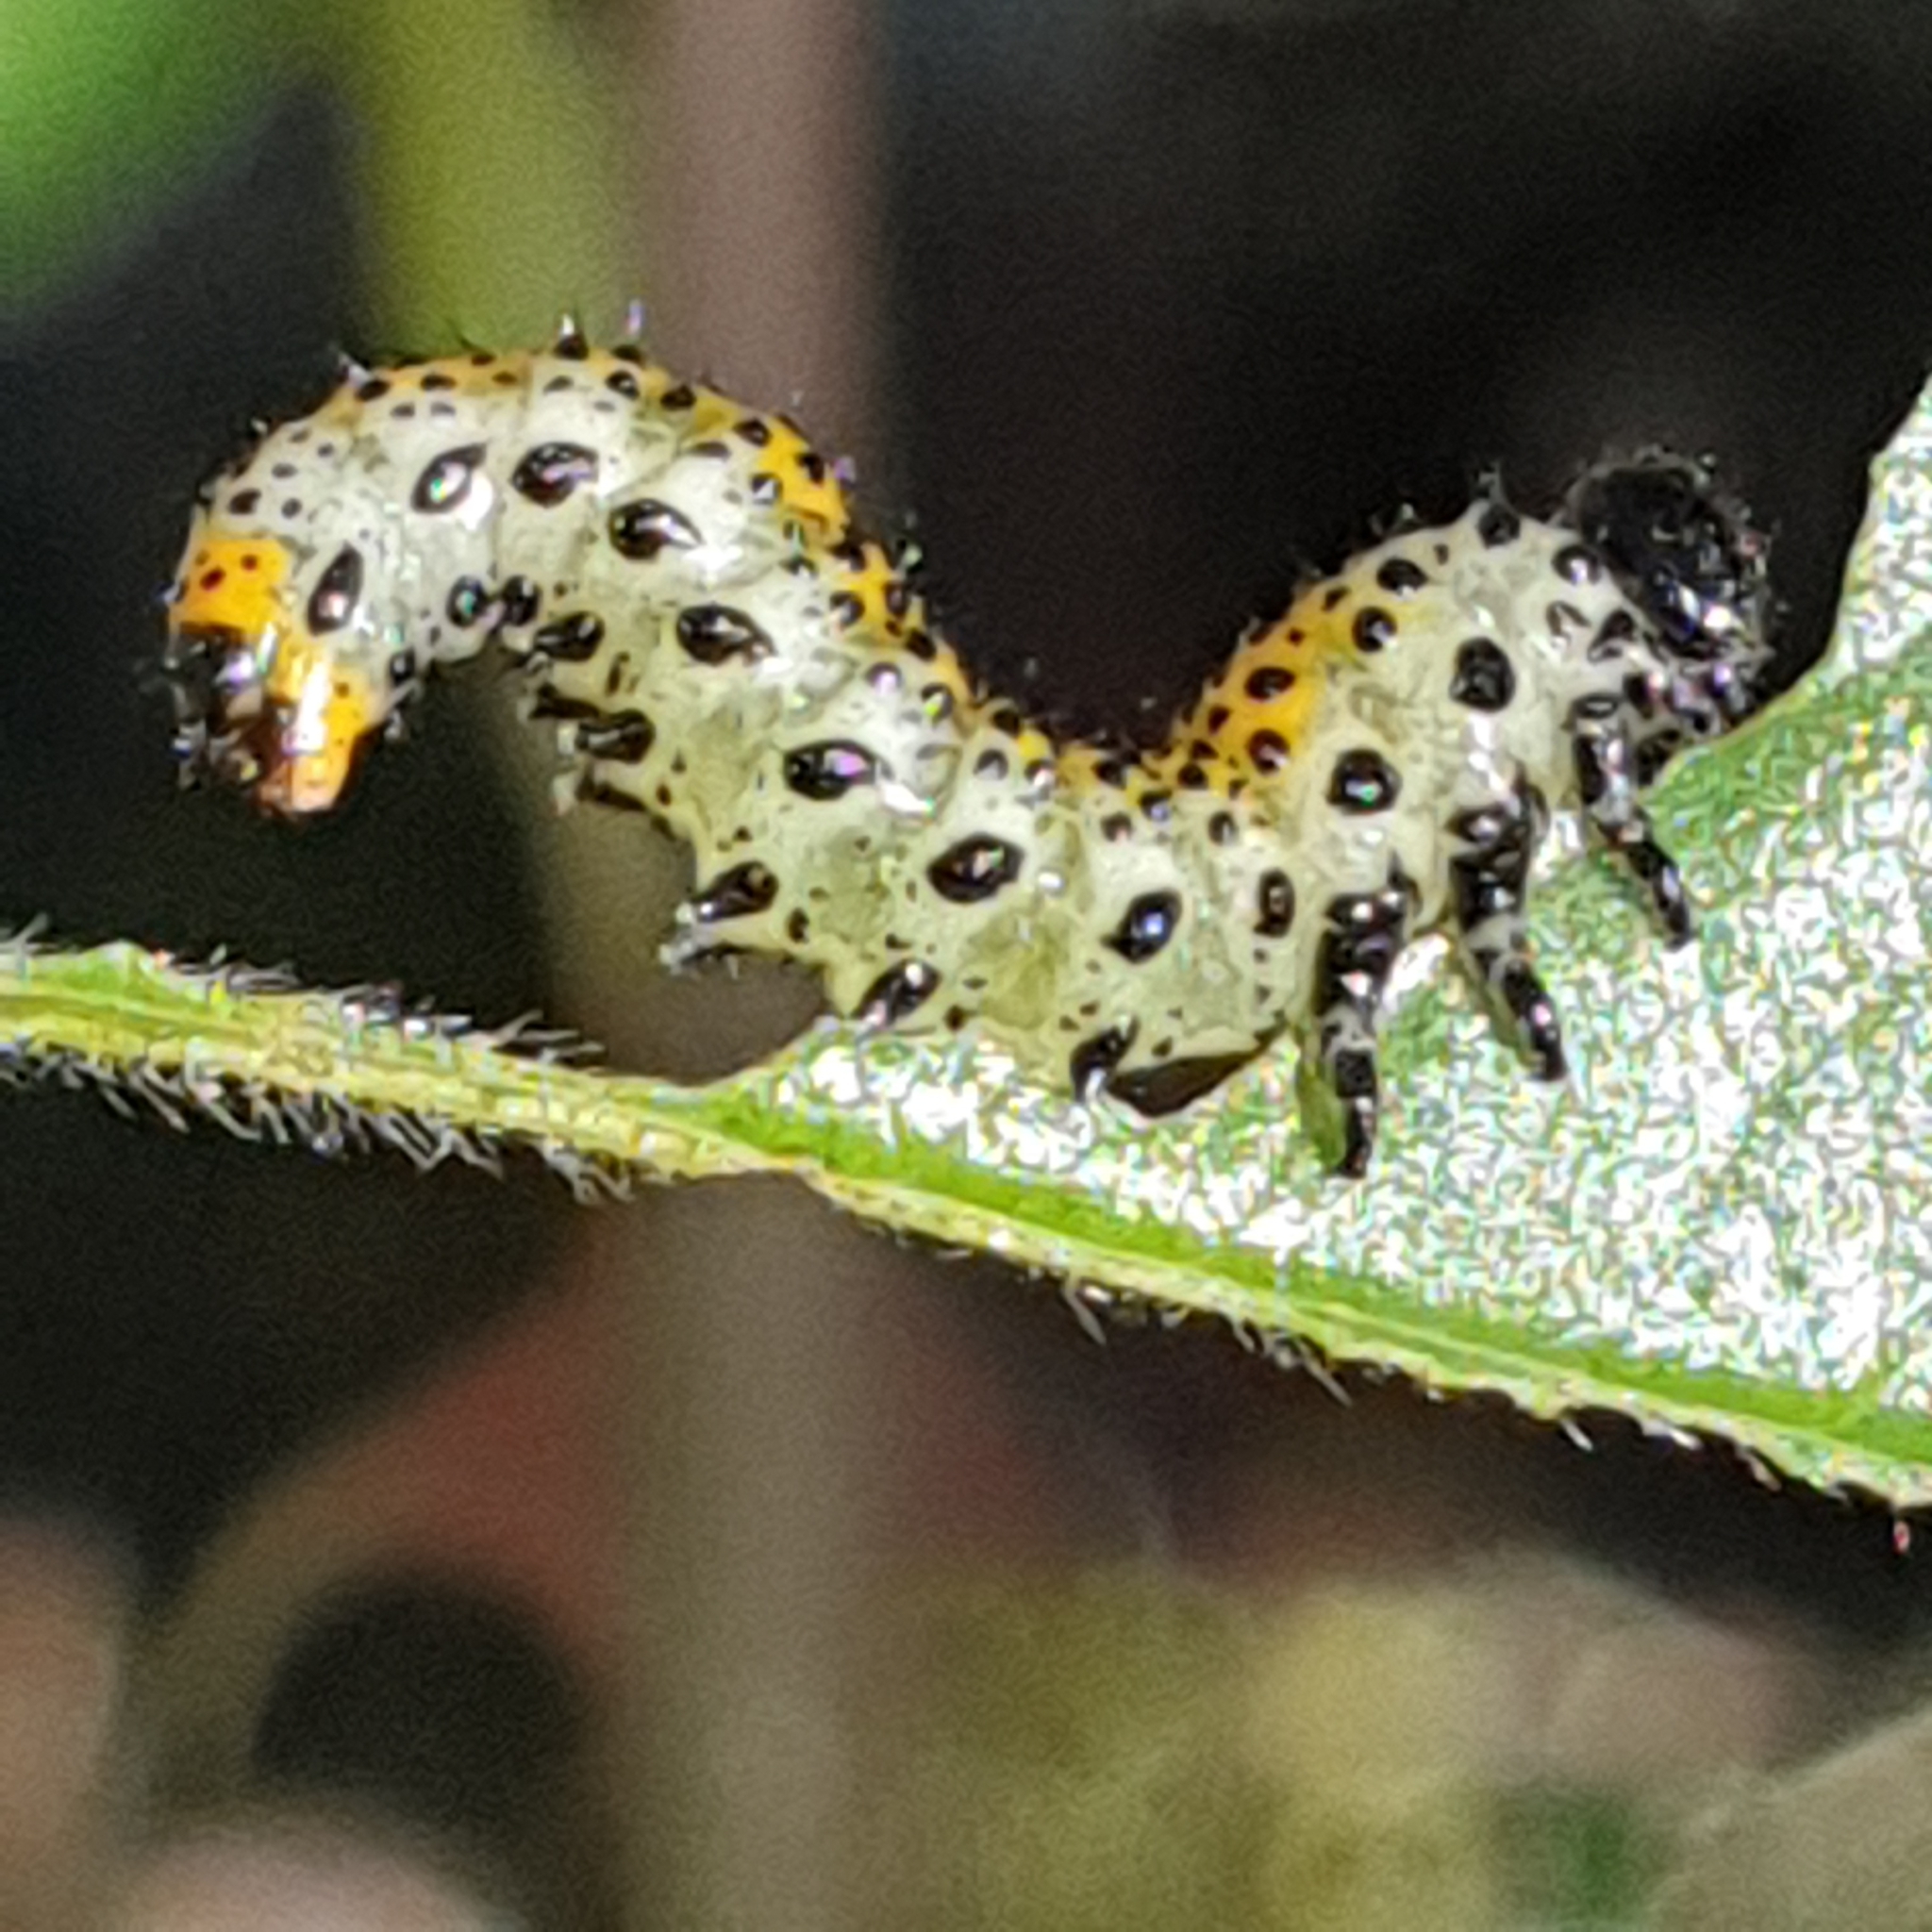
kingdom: Animalia
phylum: Arthropoda
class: Insecta
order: Hymenoptera
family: Argidae
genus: Arge
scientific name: Arge ochropus
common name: Argid sawfly
